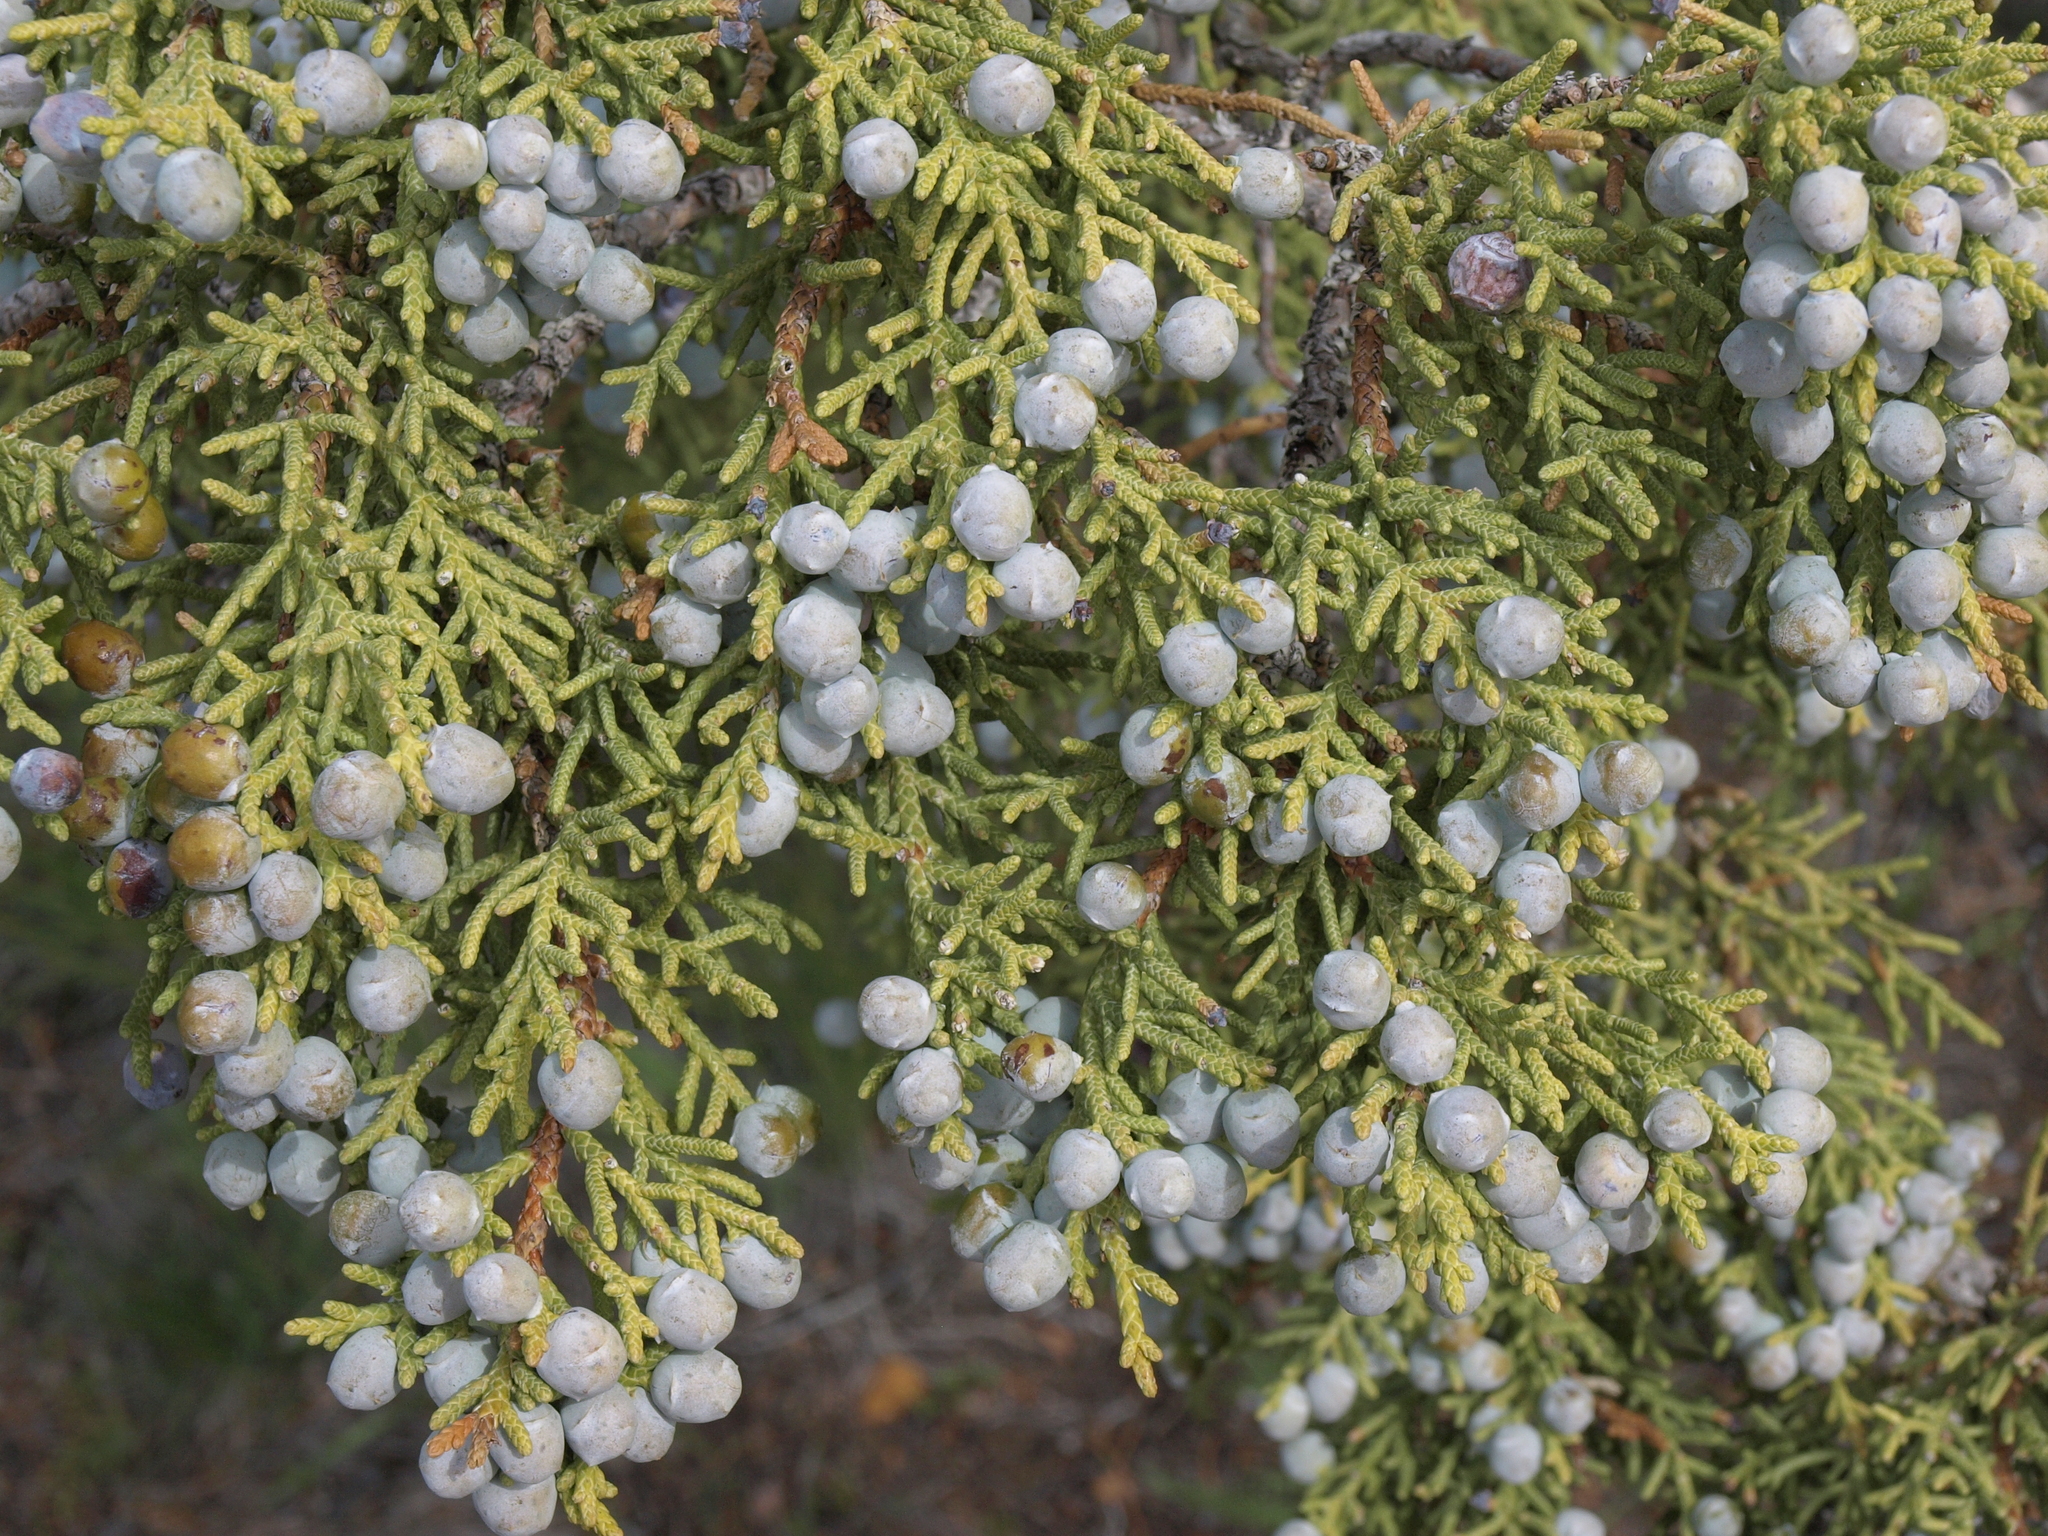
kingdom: Plantae
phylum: Tracheophyta
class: Pinopsida
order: Pinales
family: Cupressaceae
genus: Juniperus
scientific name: Juniperus osteosperma
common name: Utah juniper
